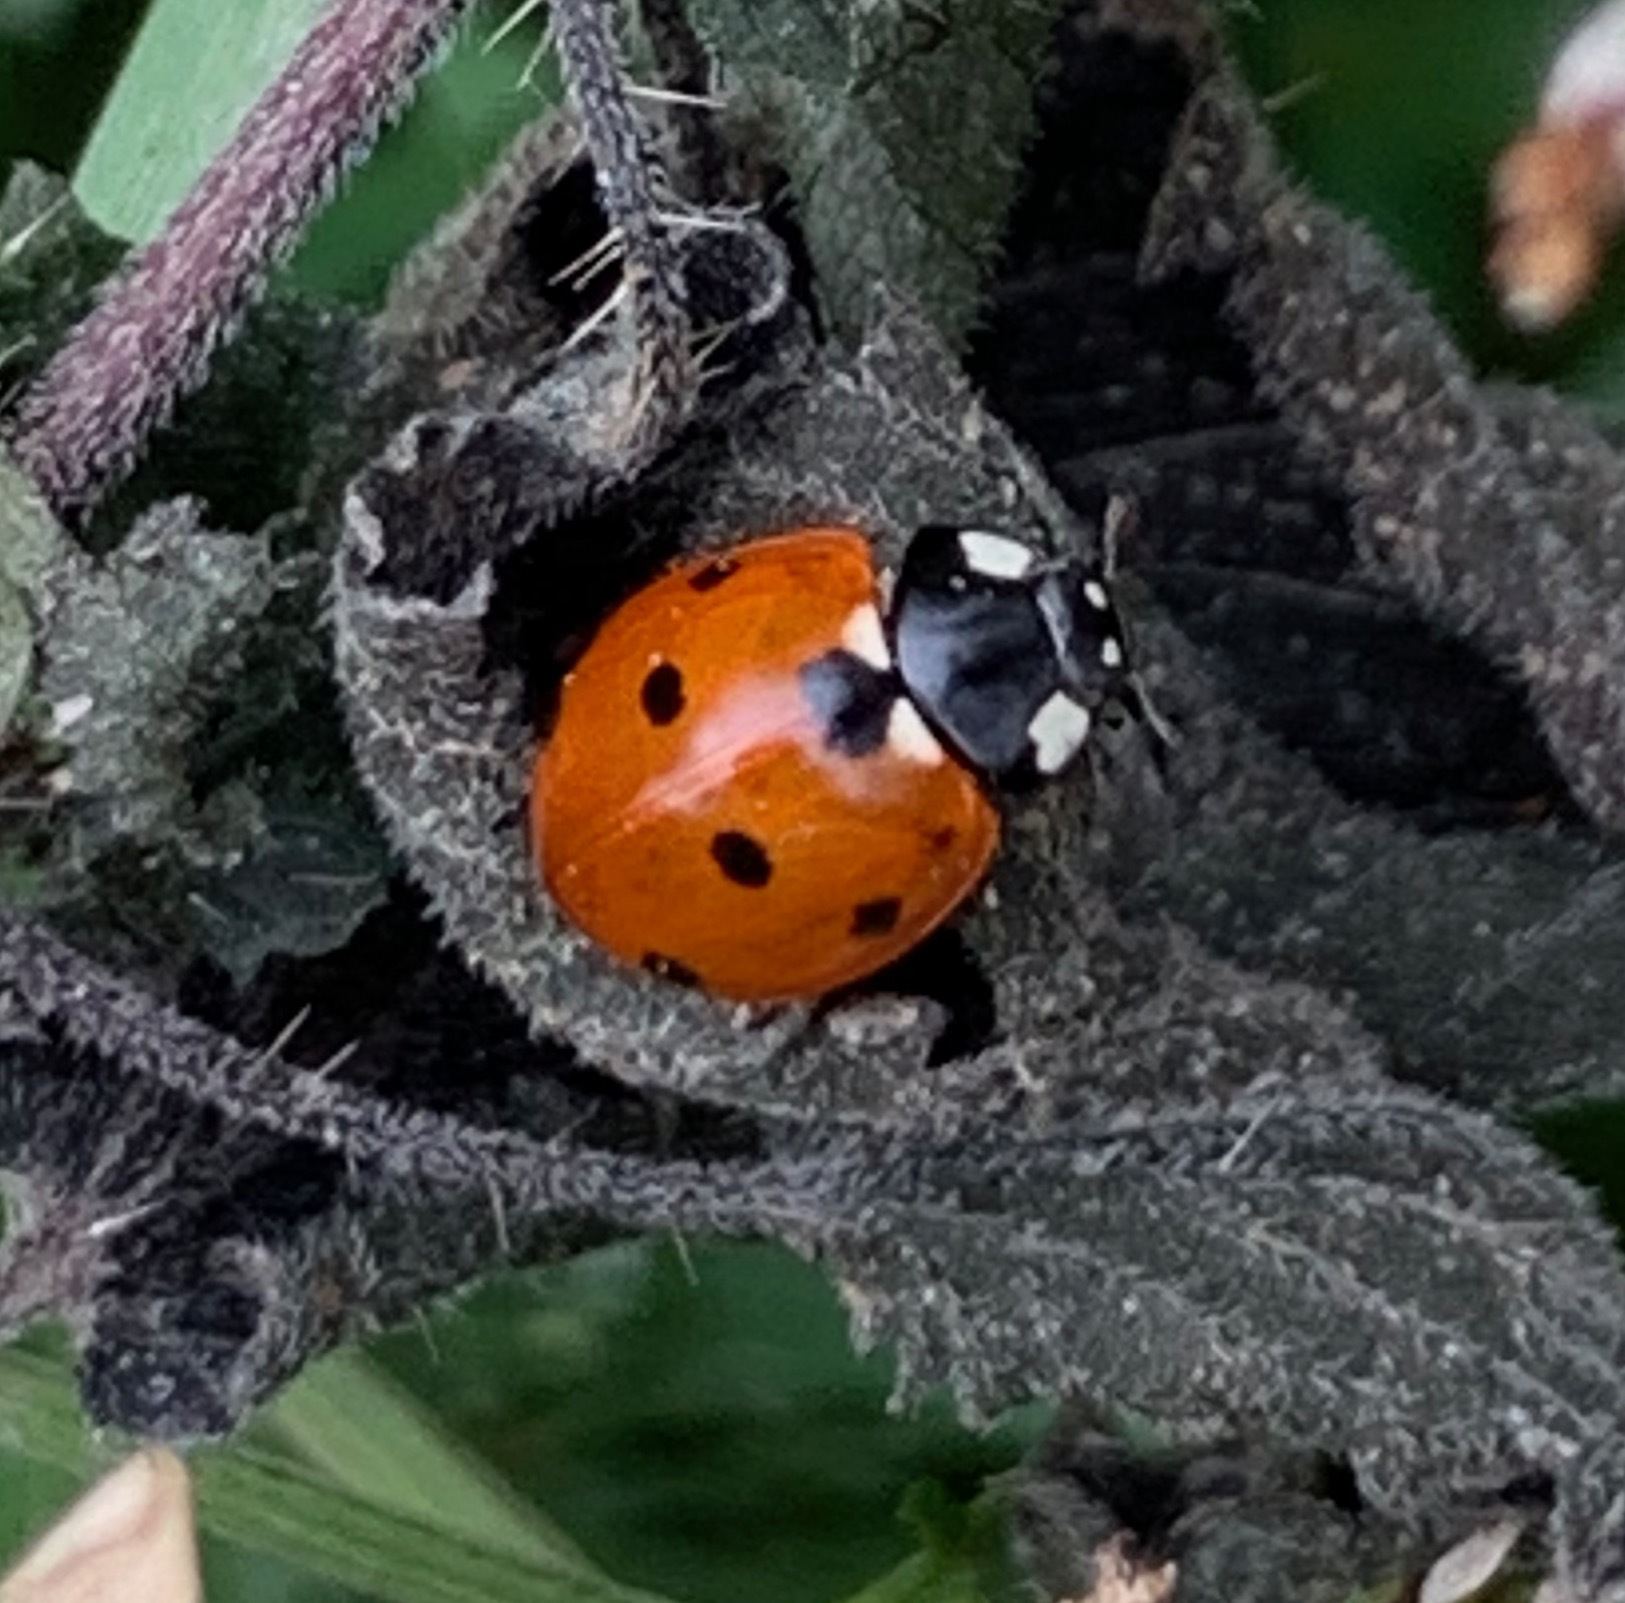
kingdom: Animalia
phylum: Arthropoda
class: Insecta
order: Coleoptera
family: Coccinellidae
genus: Coccinella
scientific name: Coccinella septempunctata
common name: Sevenspotted lady beetle
